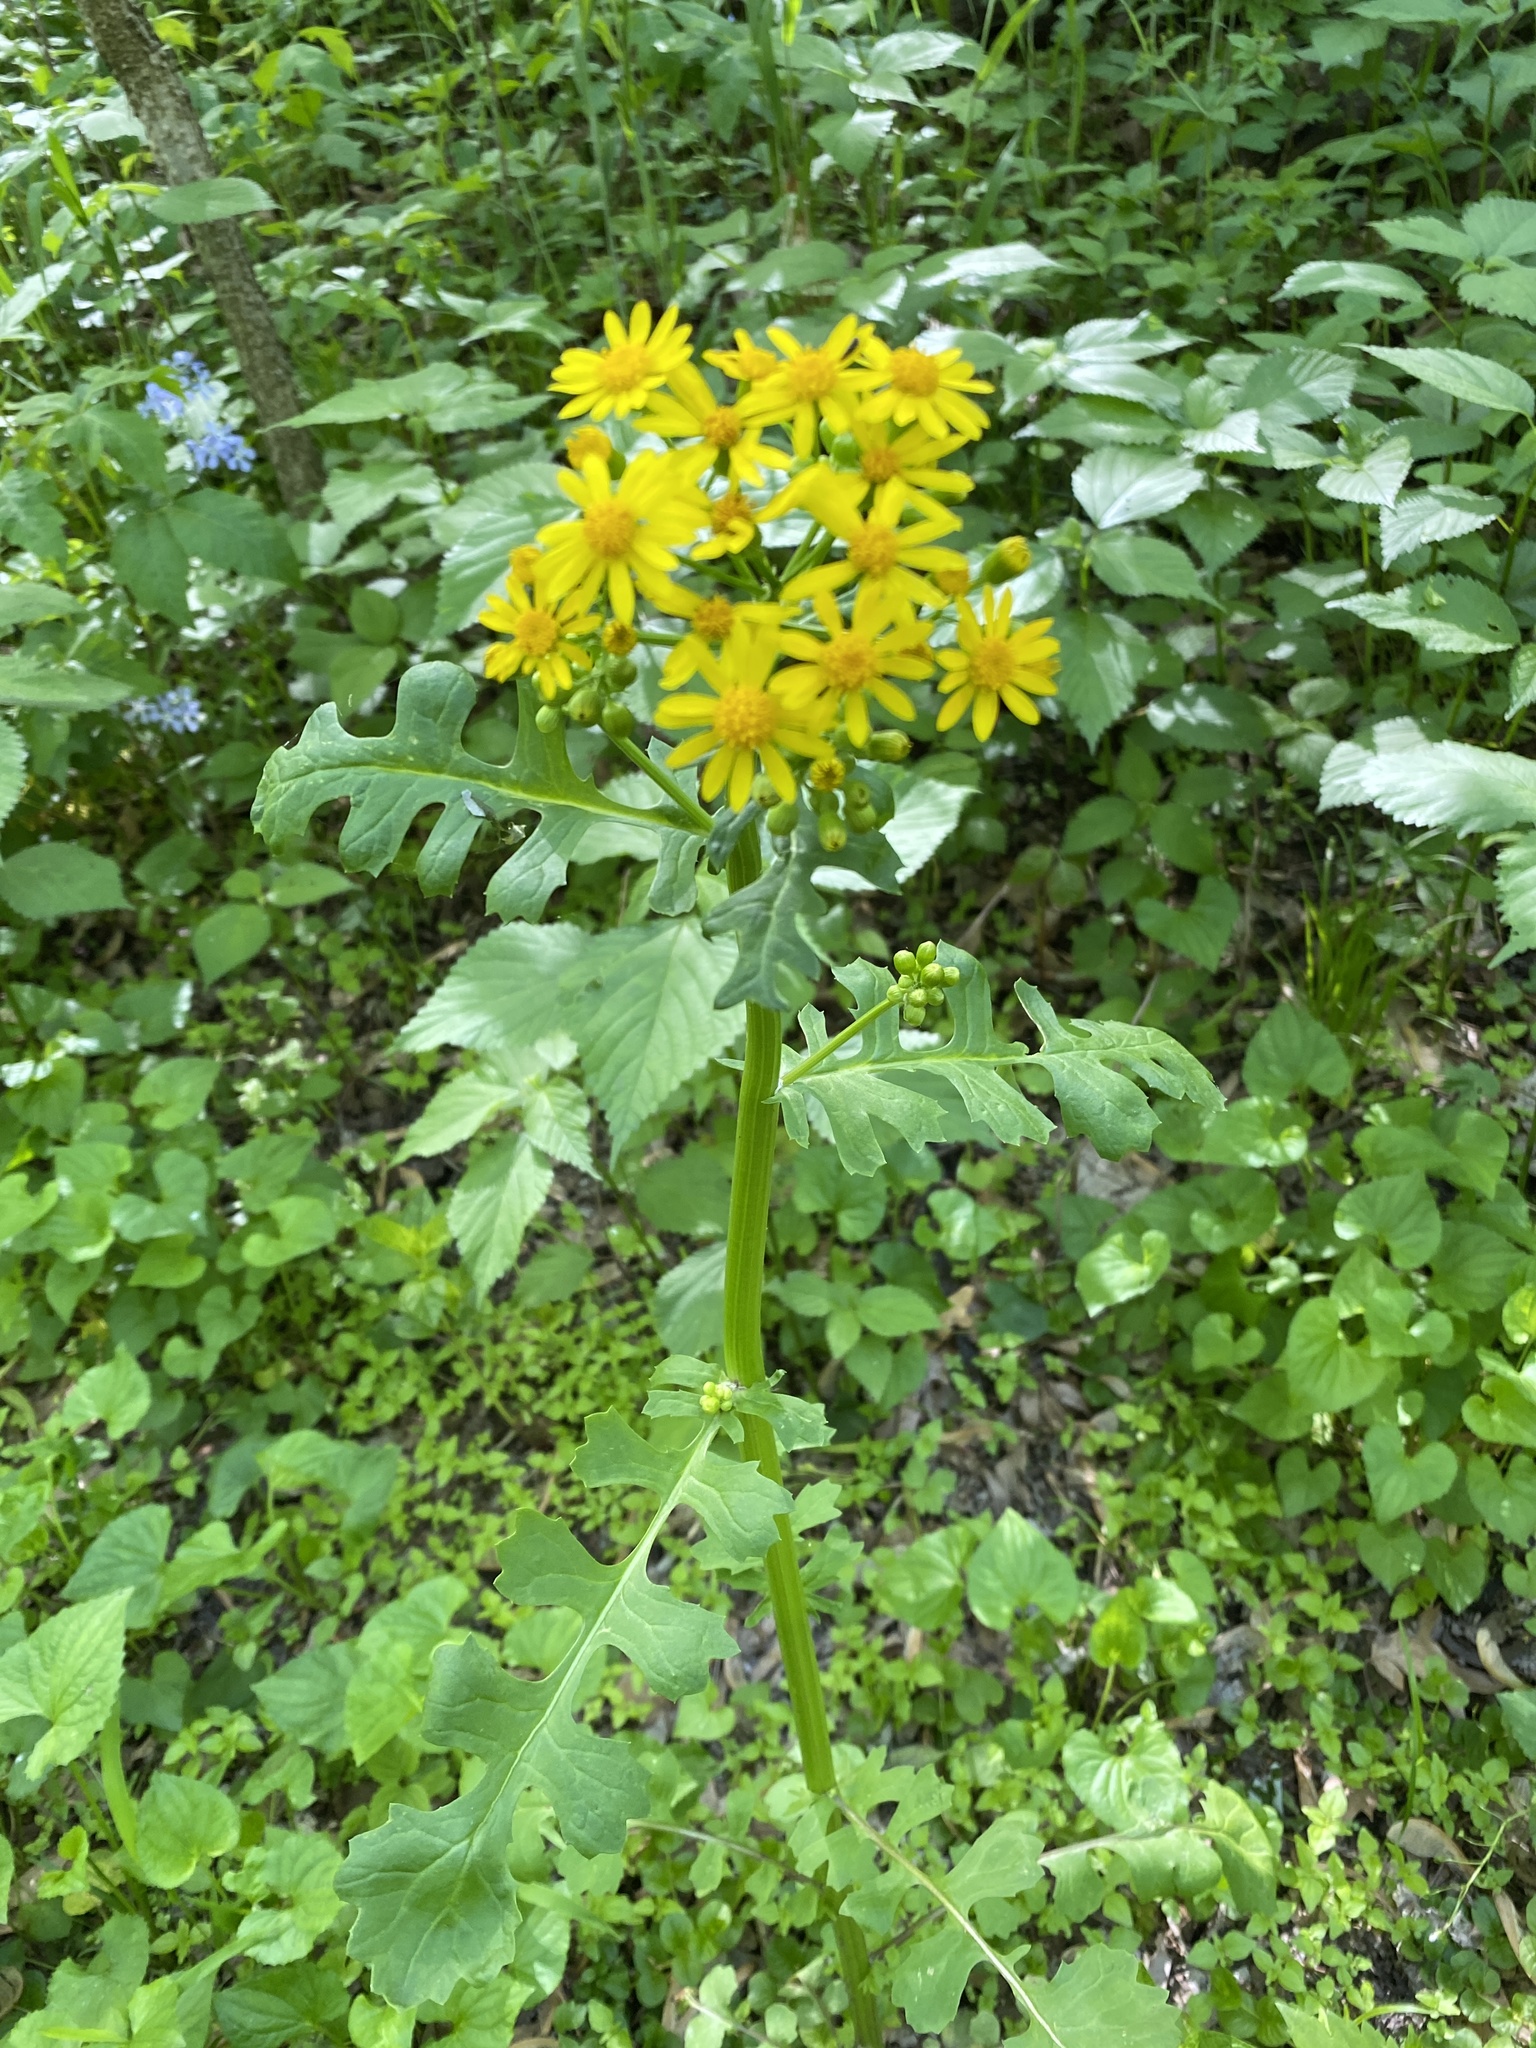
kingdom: Plantae
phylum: Tracheophyta
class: Magnoliopsida
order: Asterales
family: Asteraceae
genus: Packera
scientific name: Packera glabella
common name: Butterweed
